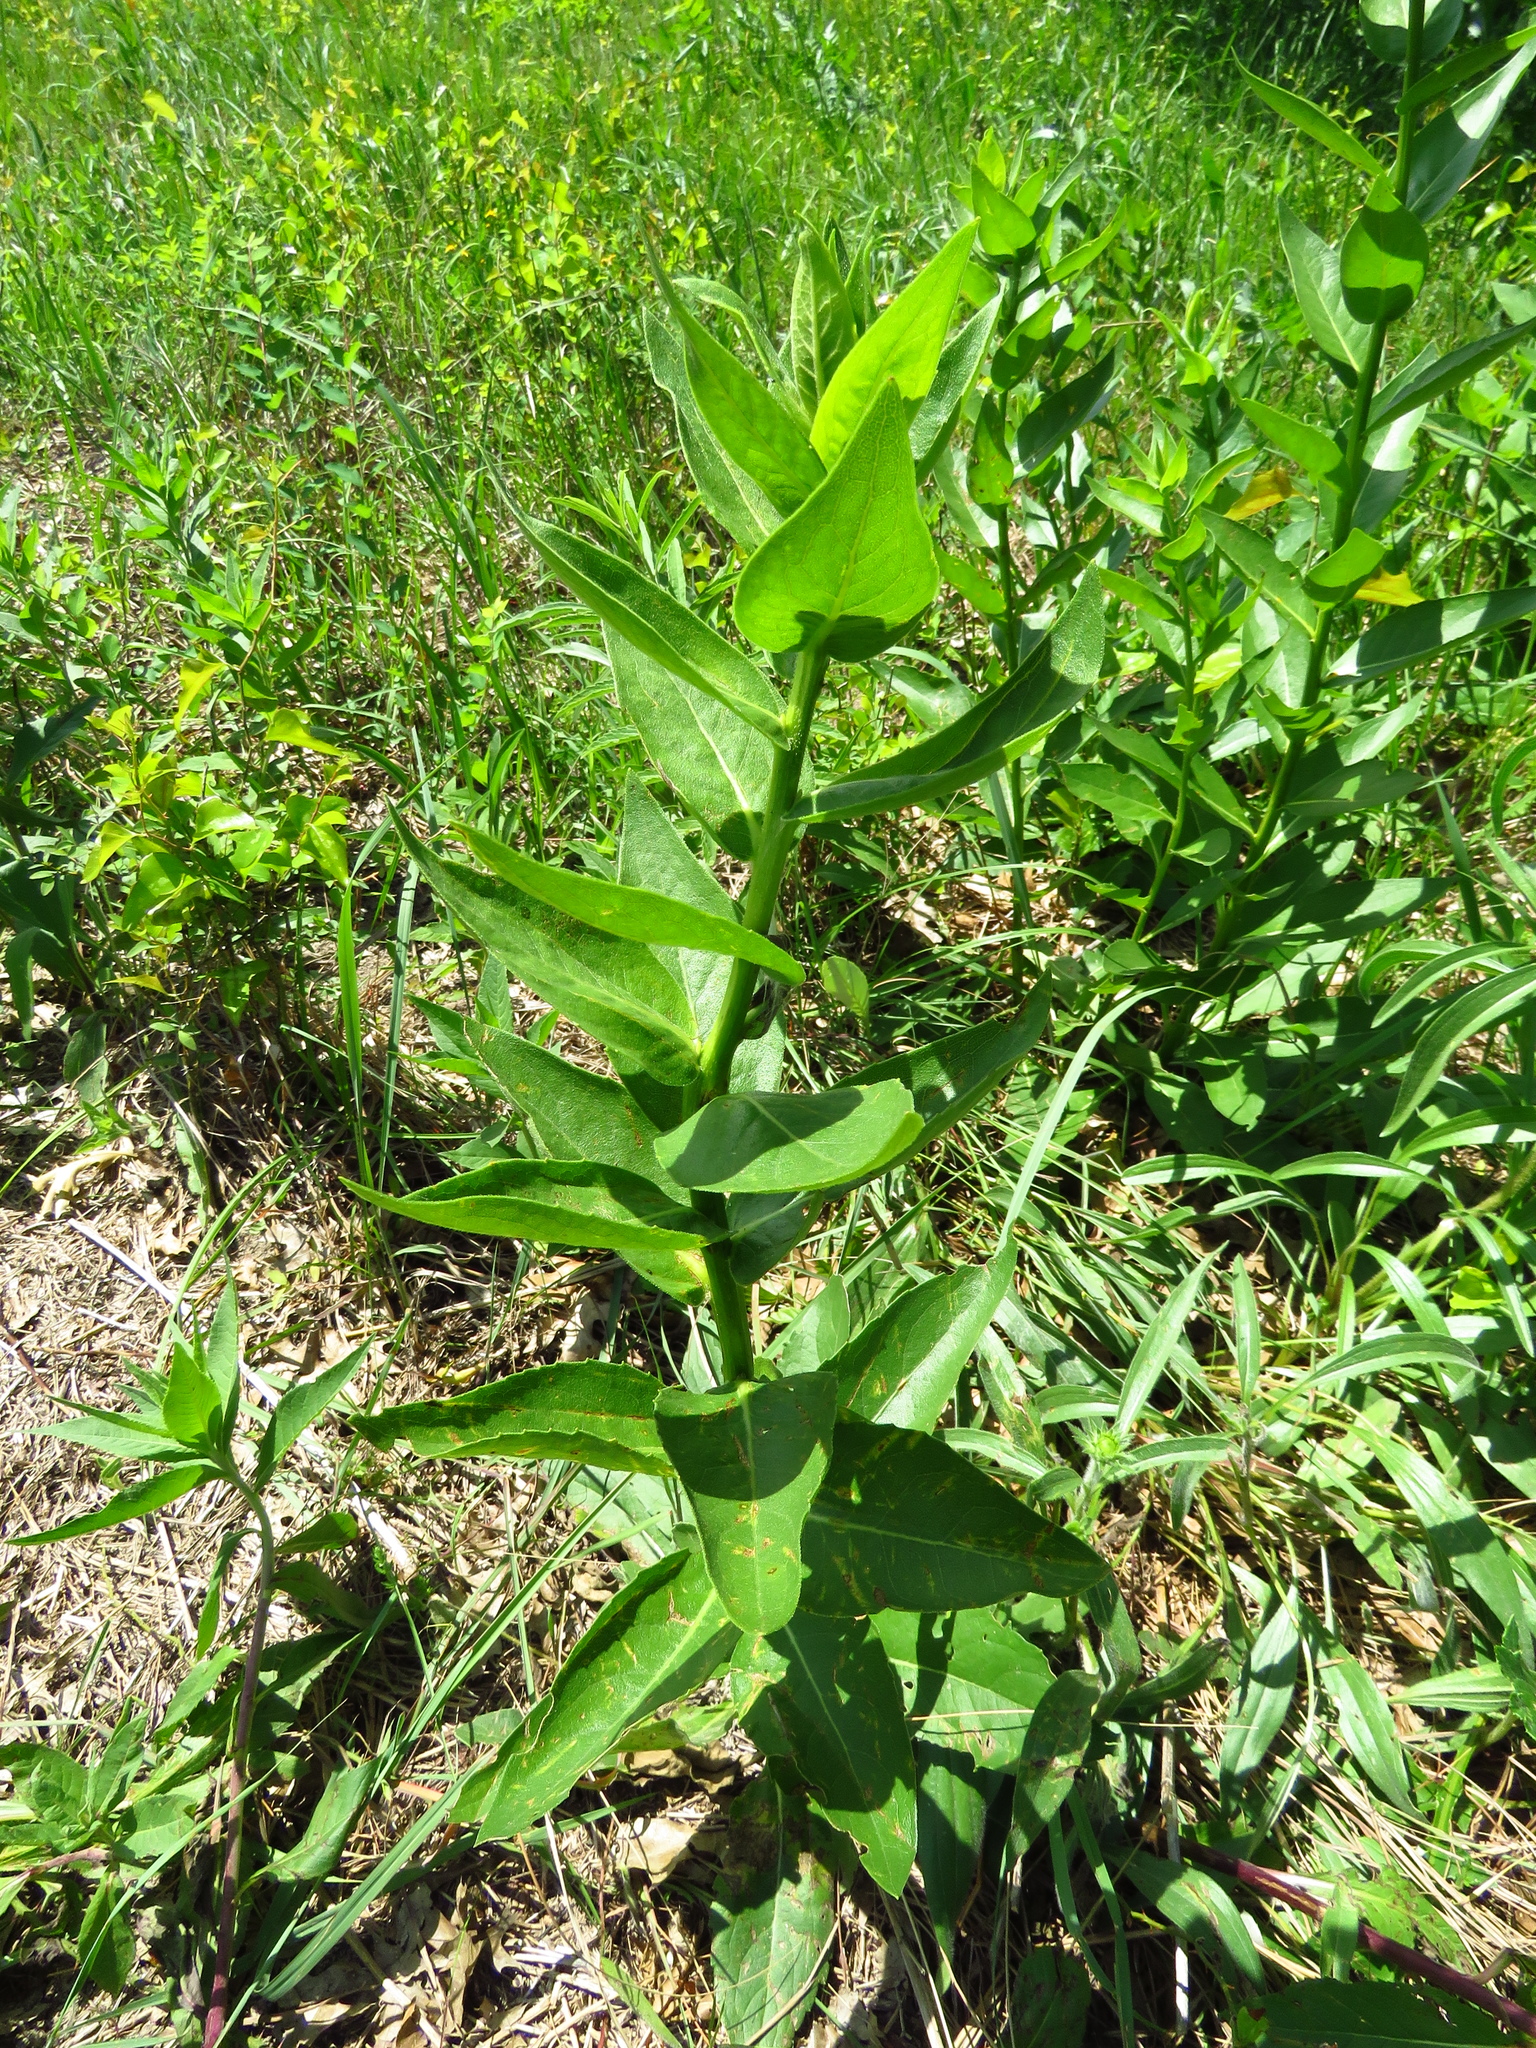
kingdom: Plantae
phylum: Tracheophyta
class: Magnoliopsida
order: Gentianales
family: Apocynaceae
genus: Asclepias
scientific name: Asclepias viridis
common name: Antelope-horns
